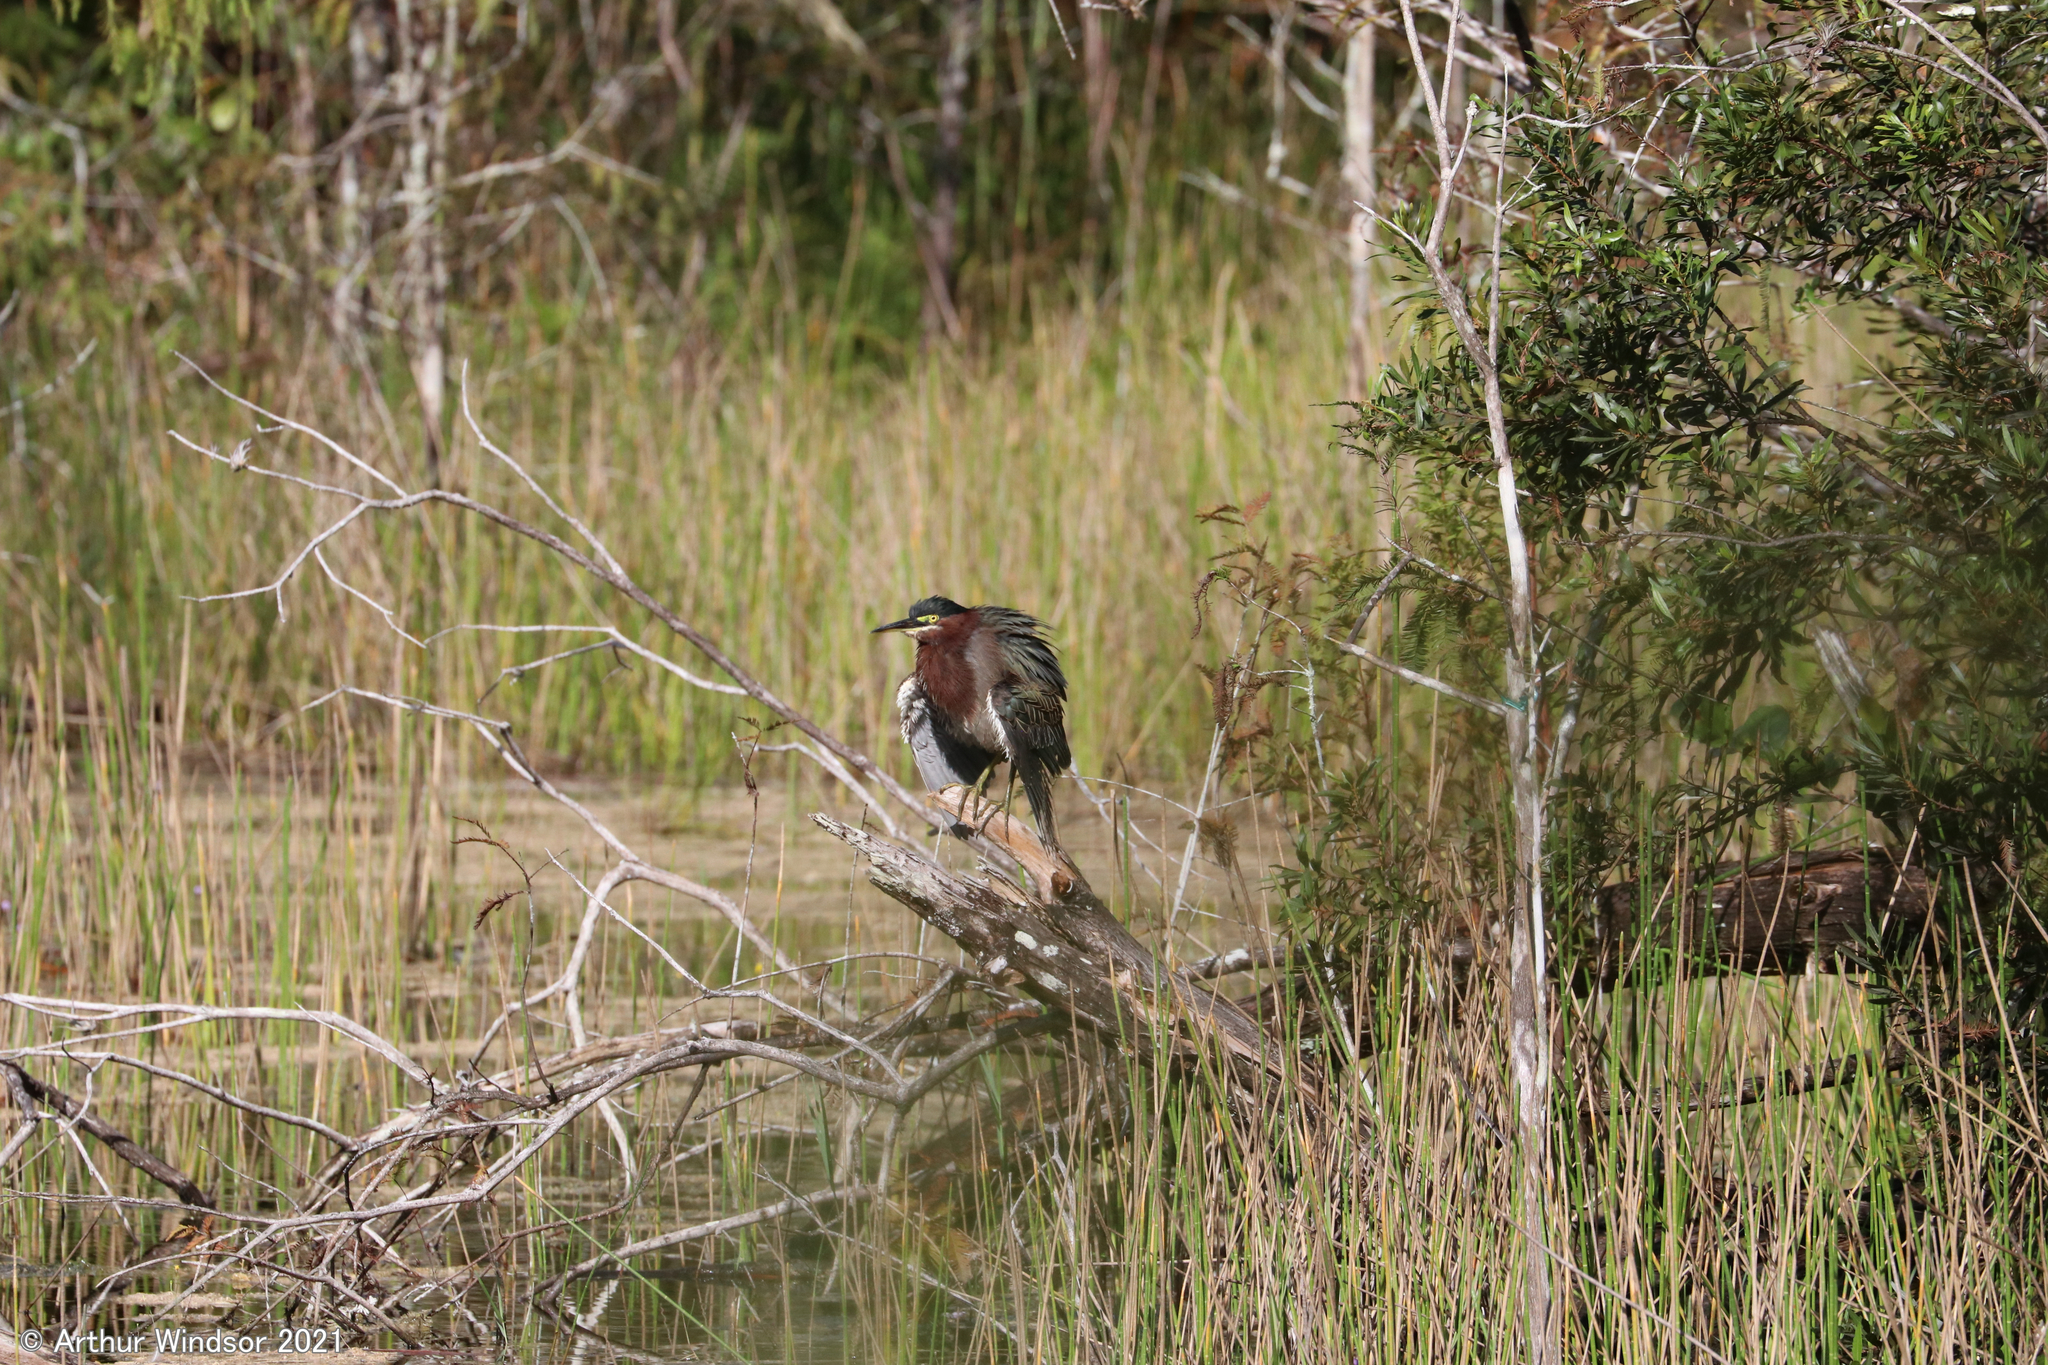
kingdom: Animalia
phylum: Chordata
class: Aves
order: Pelecaniformes
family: Ardeidae
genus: Butorides
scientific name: Butorides virescens
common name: Green heron
